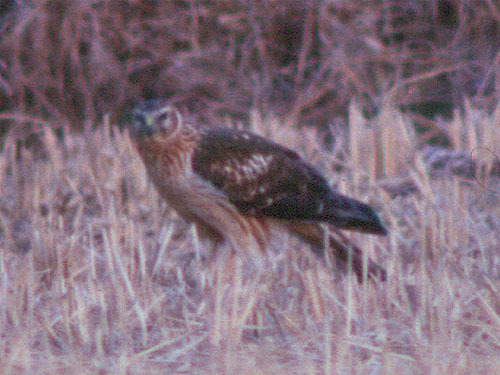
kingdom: Animalia
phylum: Chordata
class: Aves
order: Accipitriformes
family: Accipitridae
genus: Circus
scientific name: Circus cyaneus
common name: Hen harrier
